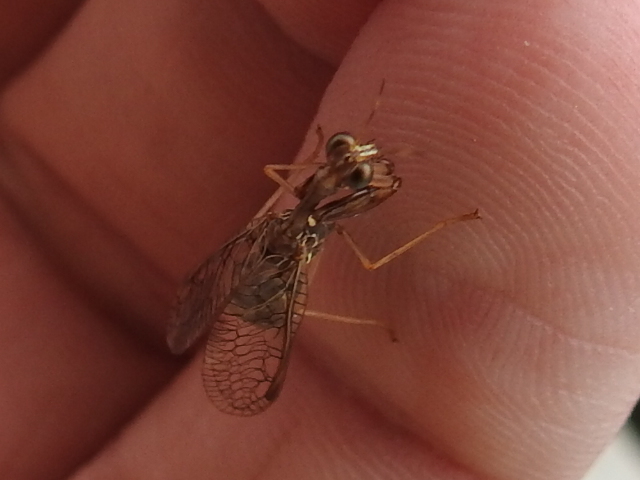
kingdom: Animalia
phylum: Arthropoda
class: Insecta
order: Neuroptera
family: Mantispidae
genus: Dicromantispa
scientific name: Dicromantispa sayi
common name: Say's mantidfly
